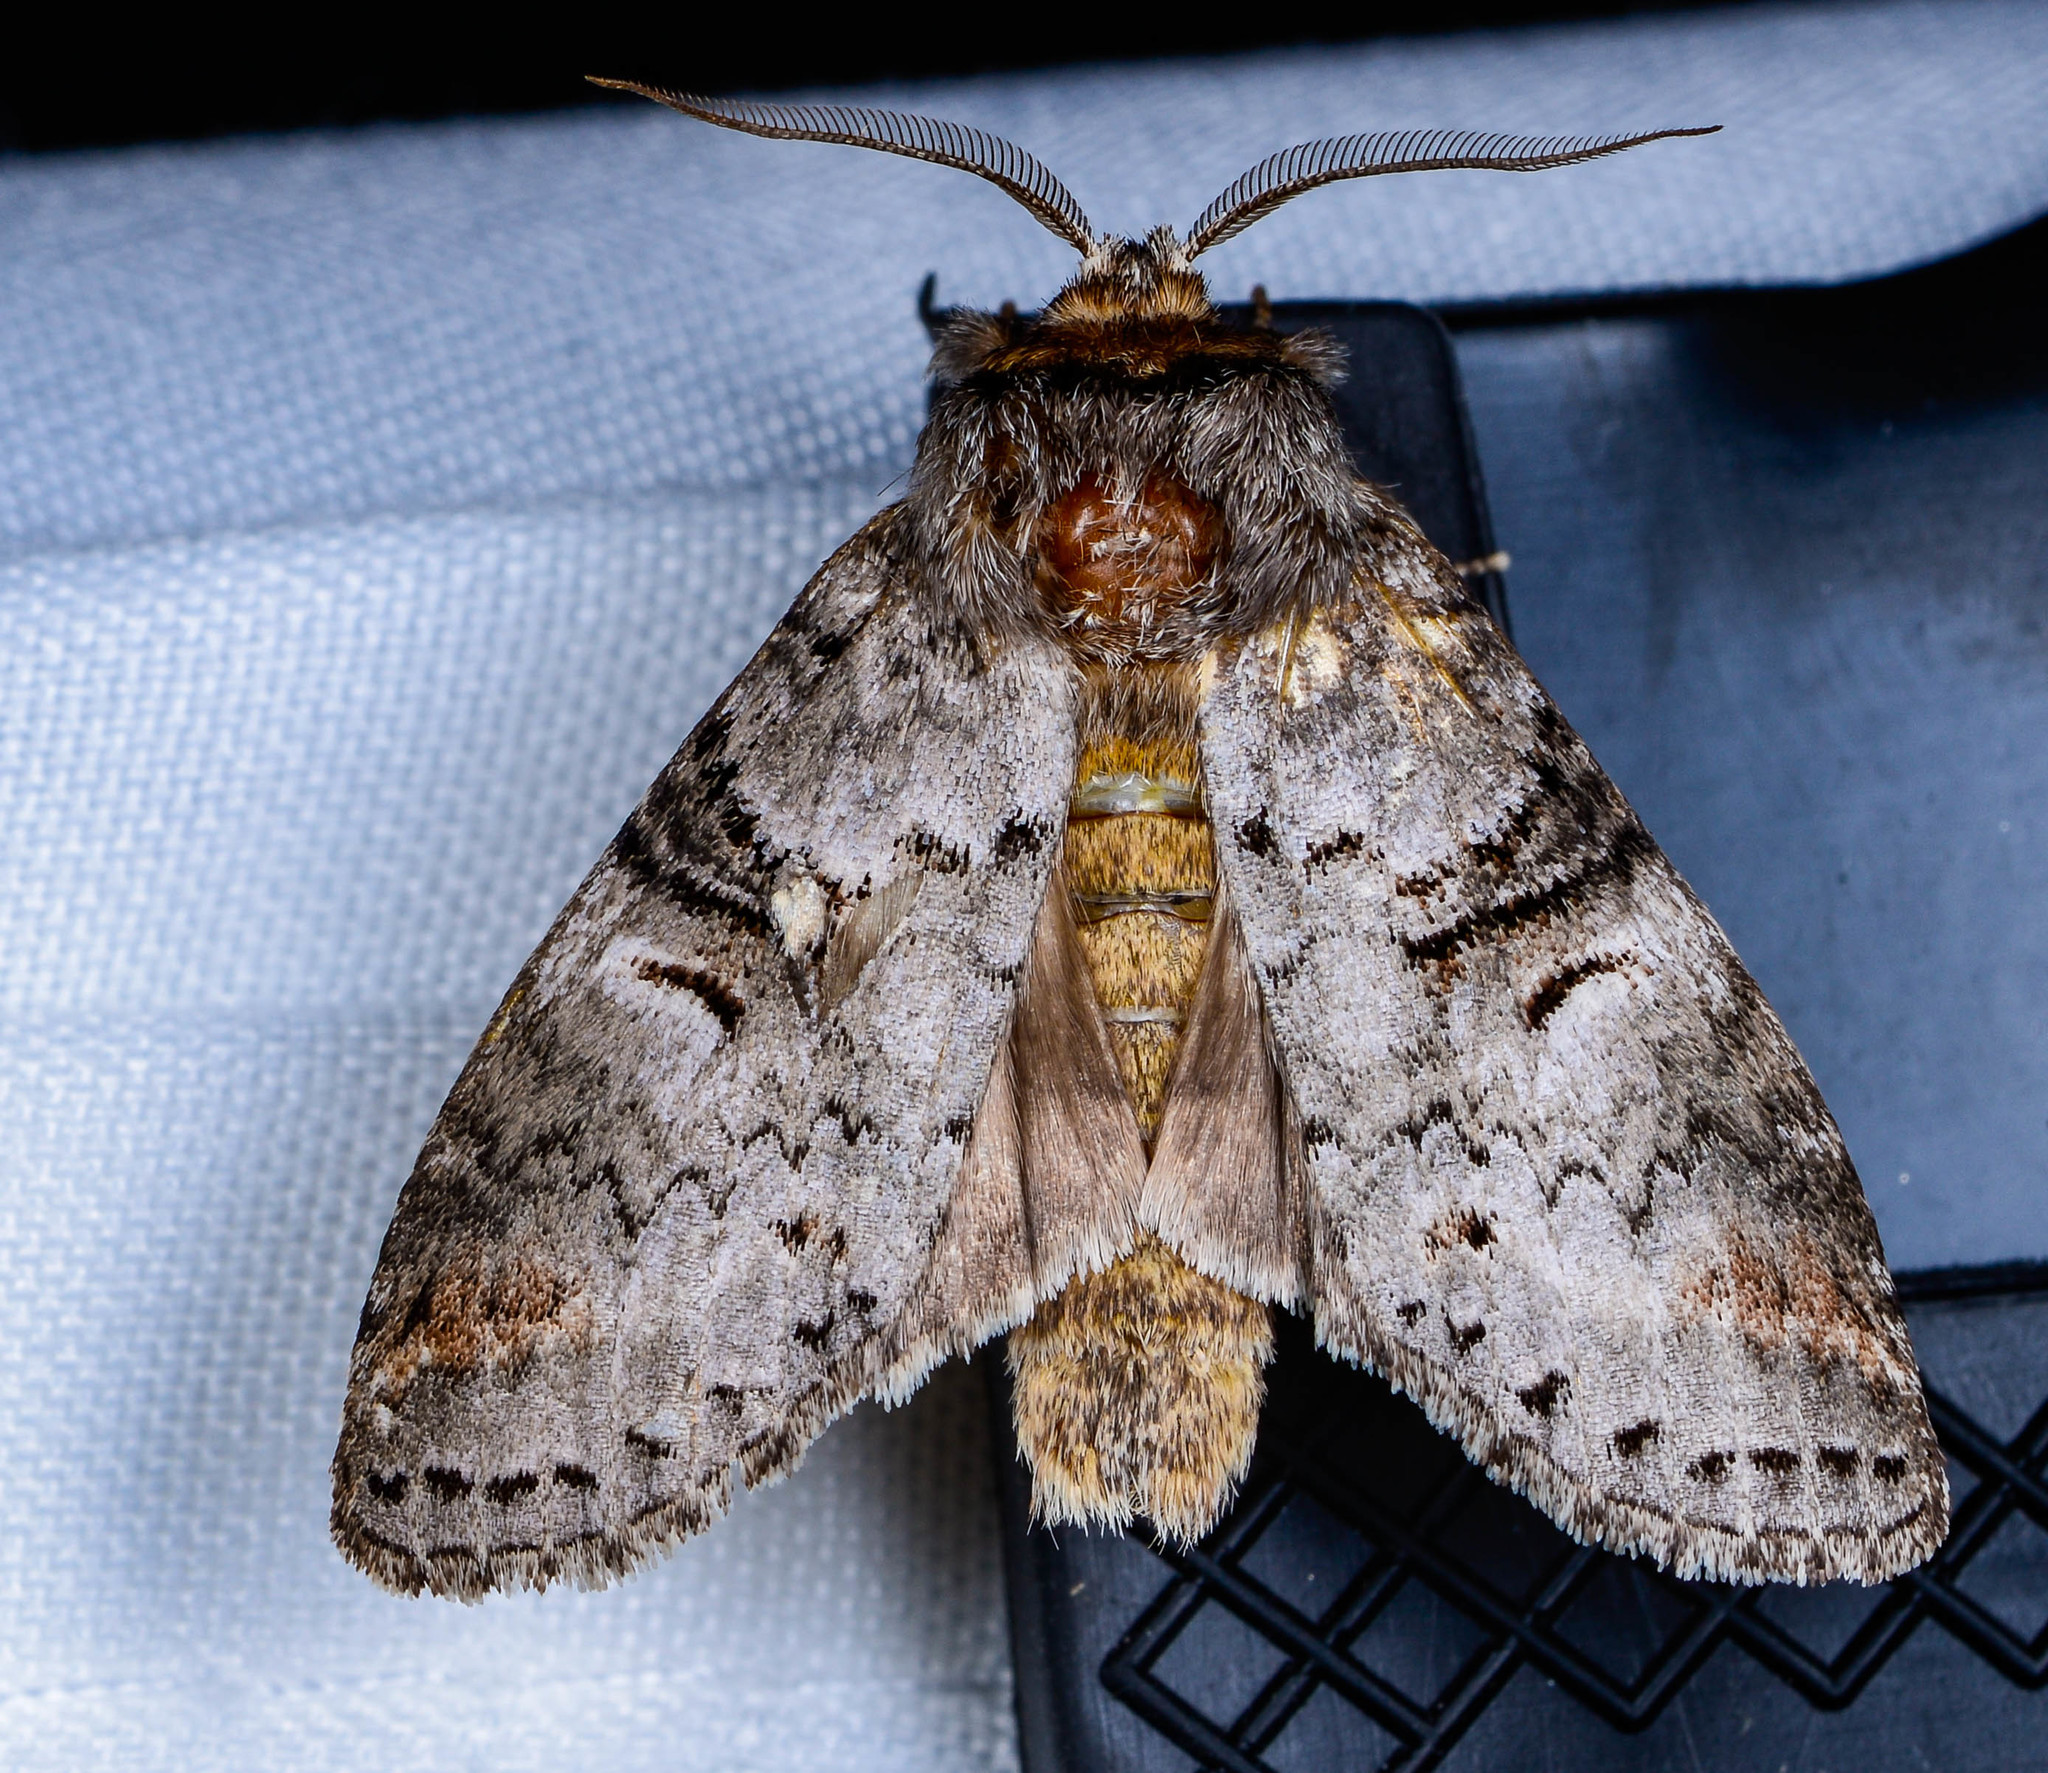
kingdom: Animalia
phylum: Arthropoda
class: Insecta
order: Lepidoptera
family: Notodontidae
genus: Ellida
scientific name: Ellida caniplaga
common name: Linden prominent
